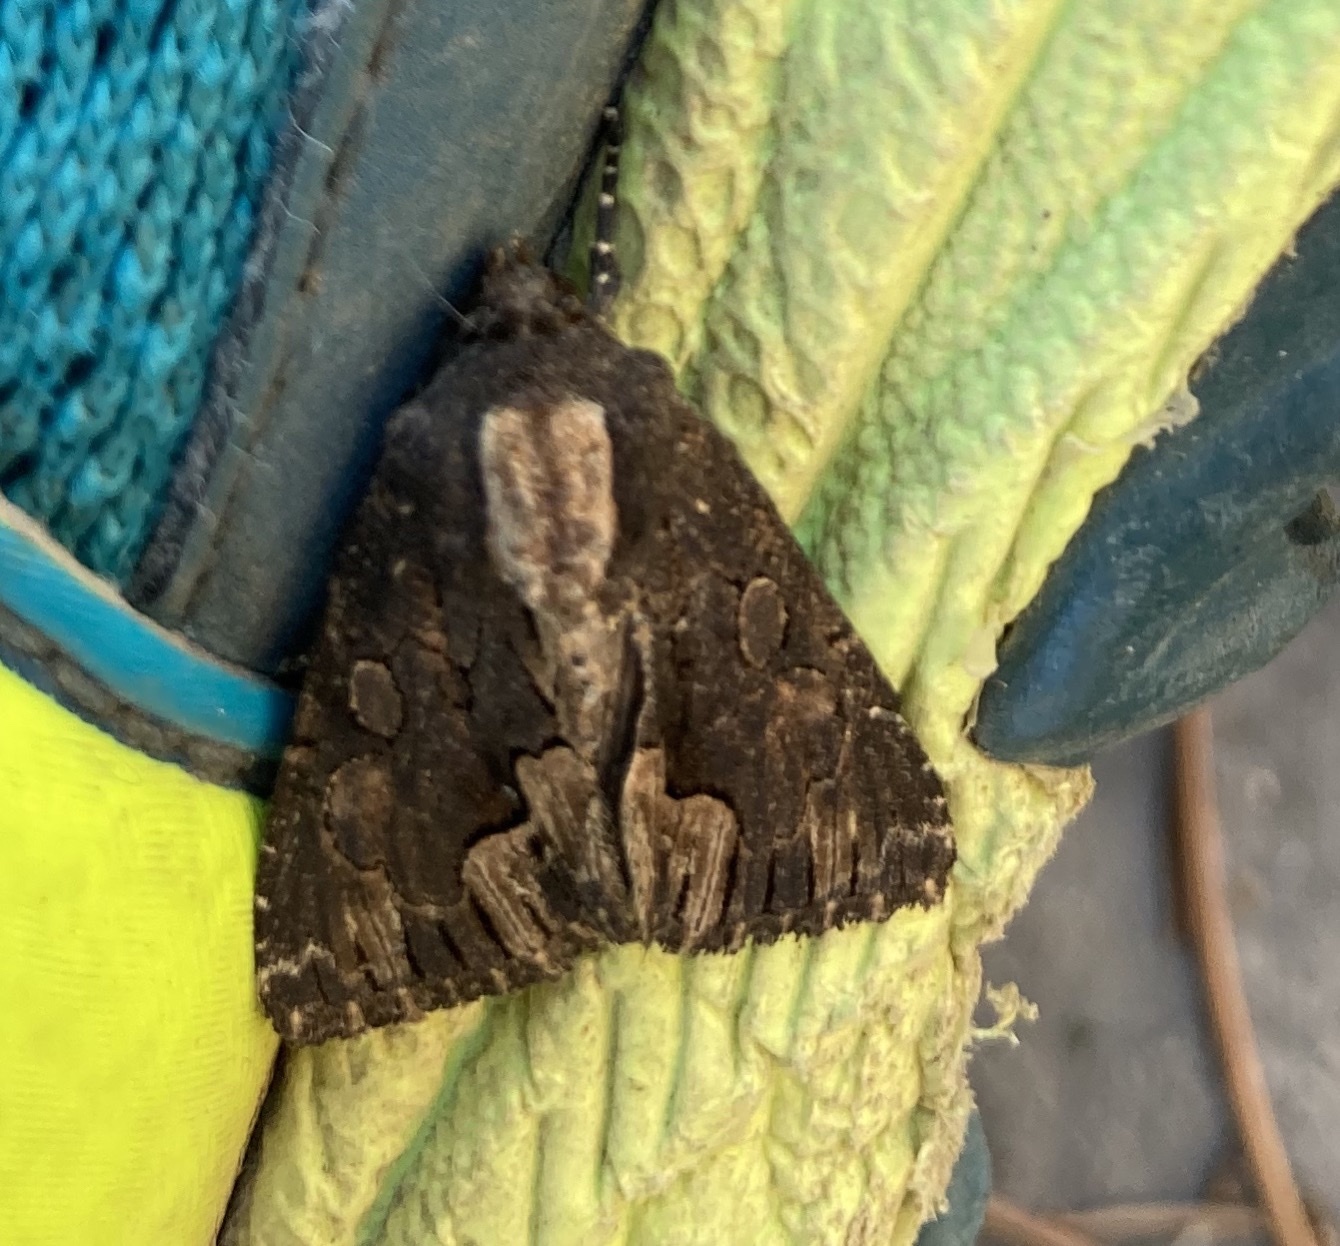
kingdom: Animalia
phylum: Arthropoda
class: Insecta
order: Lepidoptera
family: Noctuidae
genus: Dypterygia
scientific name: Dypterygia scabriuscula
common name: Bird's wing
